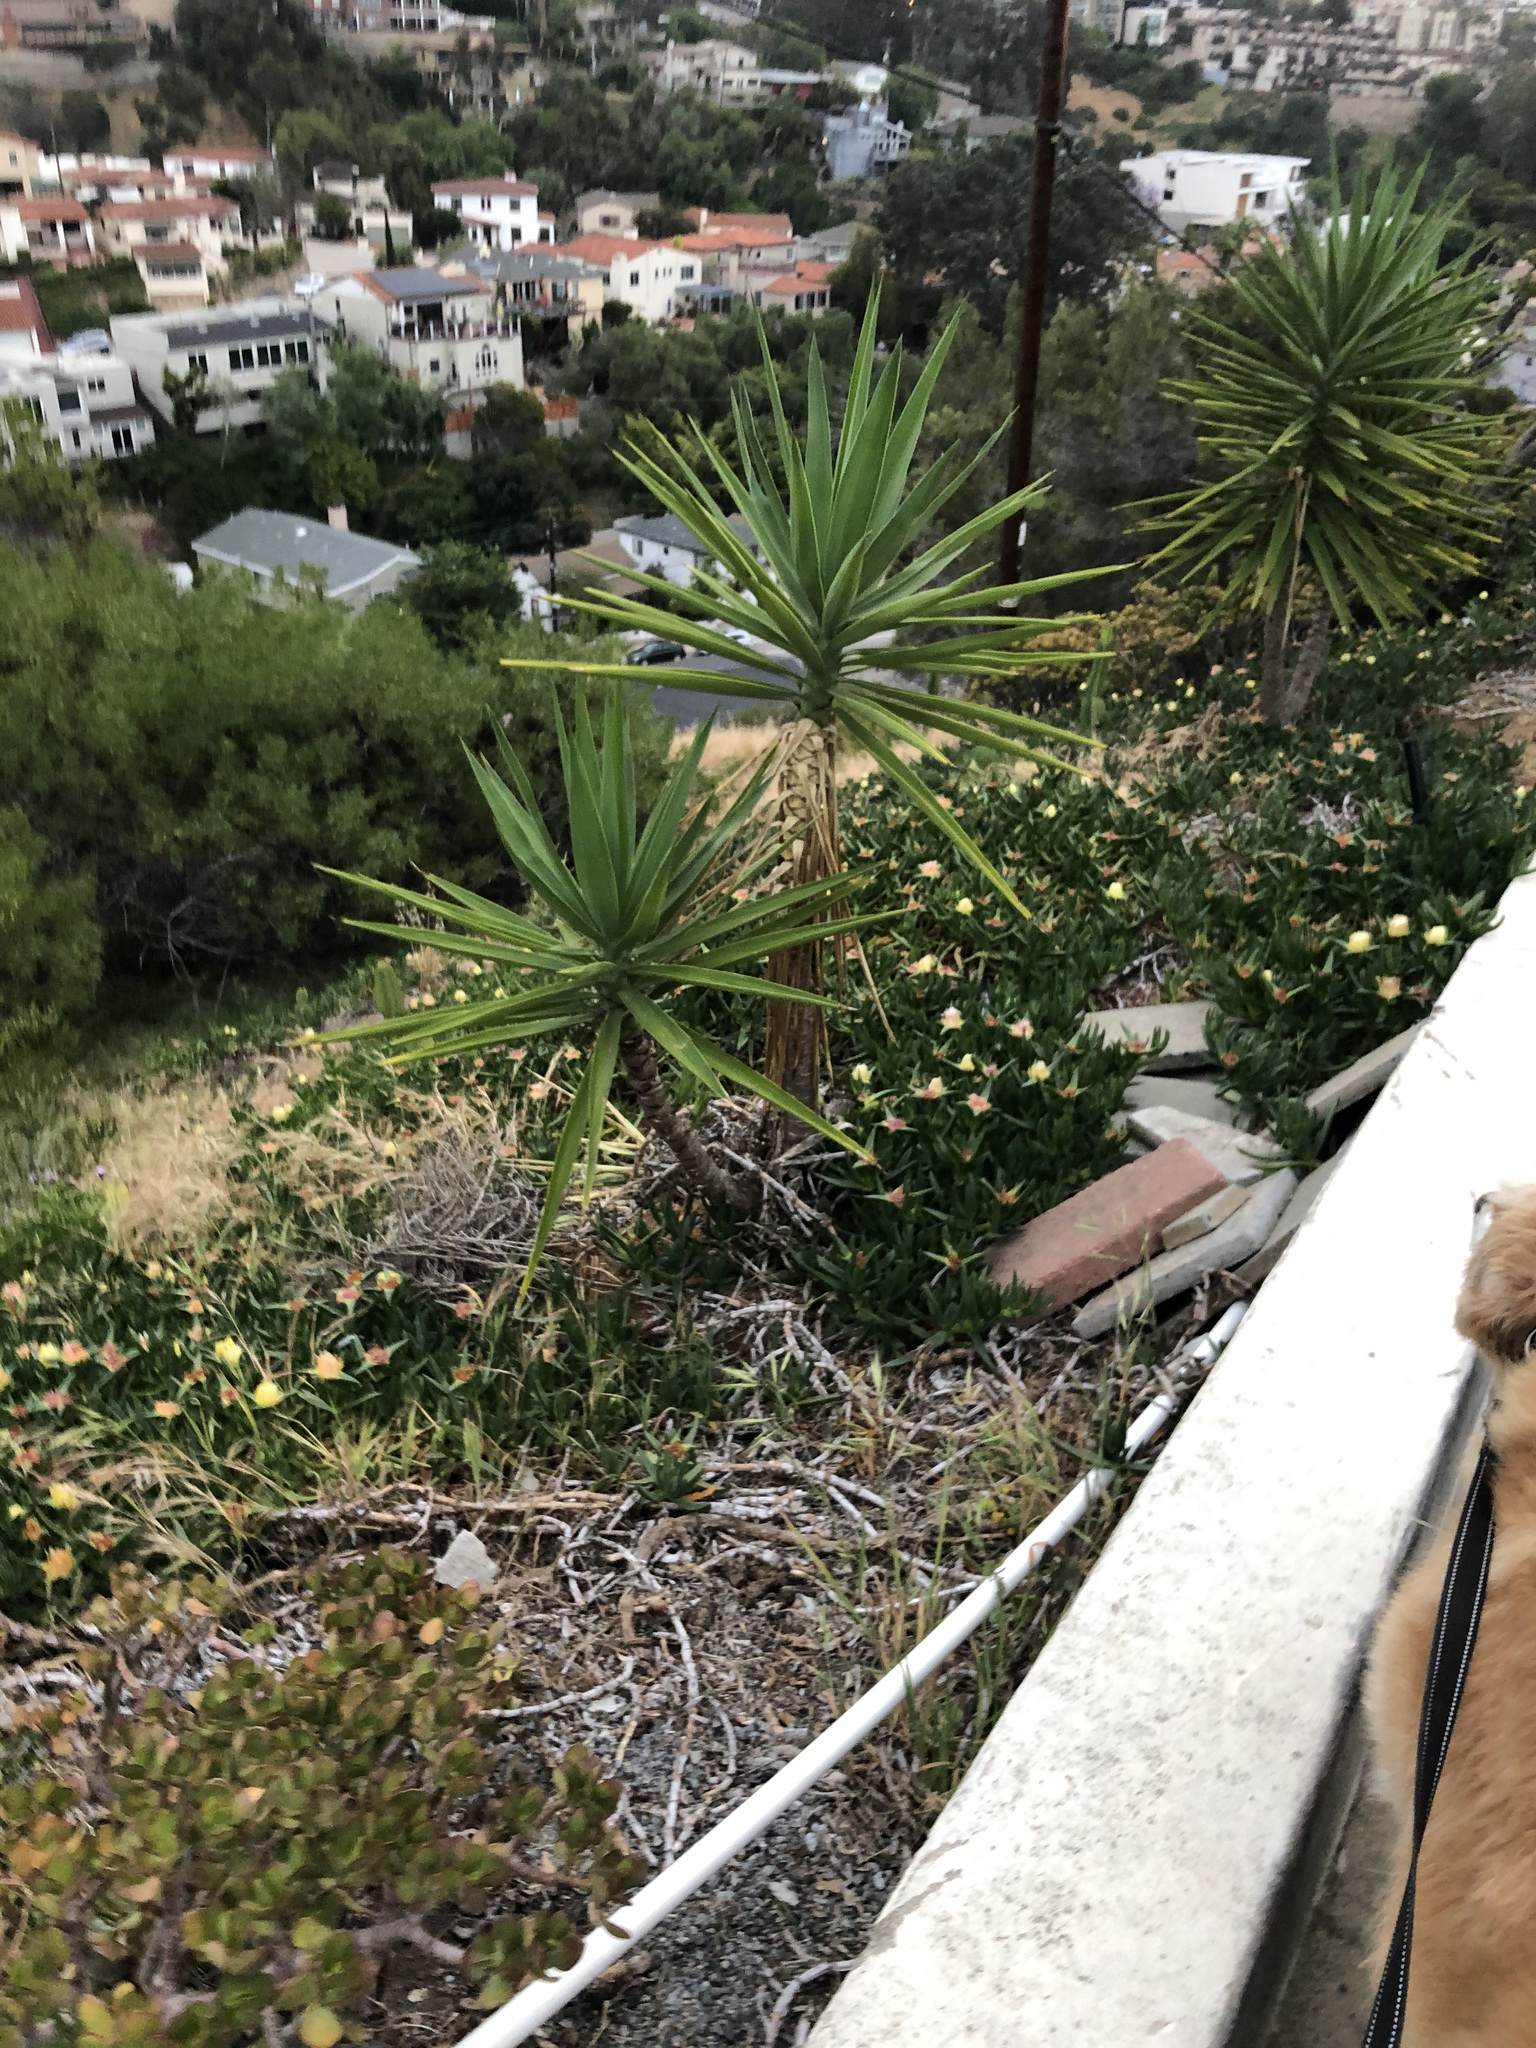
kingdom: Plantae
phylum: Tracheophyta
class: Liliopsida
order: Asparagales
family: Asparagaceae
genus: Yucca
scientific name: Yucca gigantea
